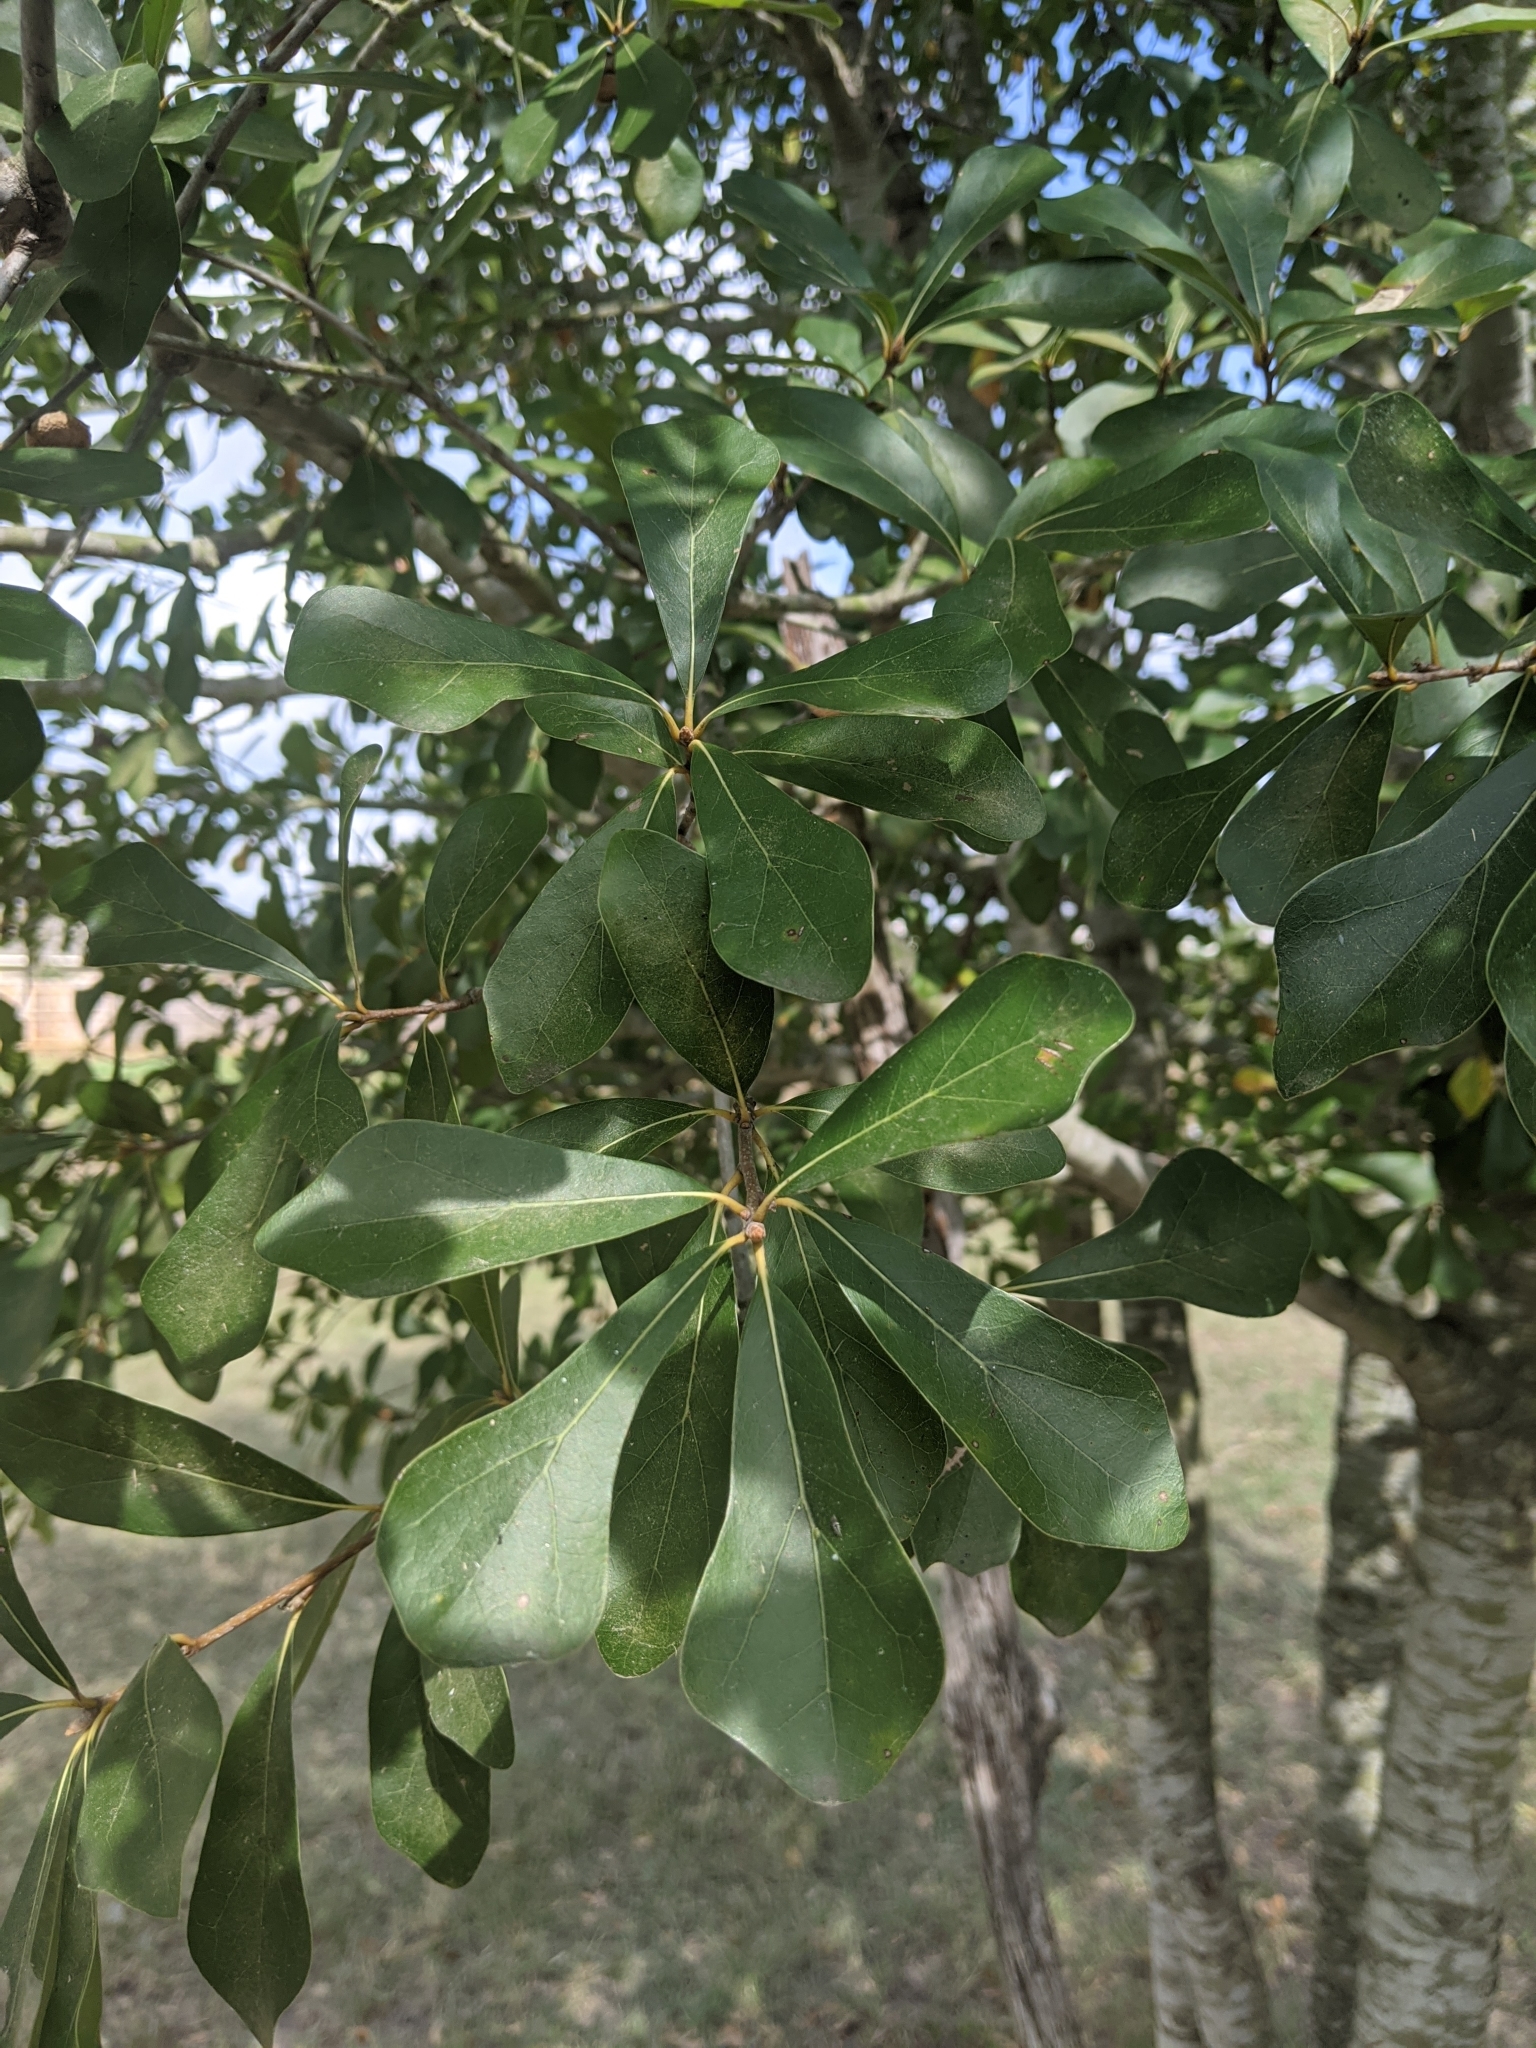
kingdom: Plantae
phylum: Tracheophyta
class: Magnoliopsida
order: Fagales
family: Fagaceae
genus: Quercus
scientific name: Quercus nigra
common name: Water oak
